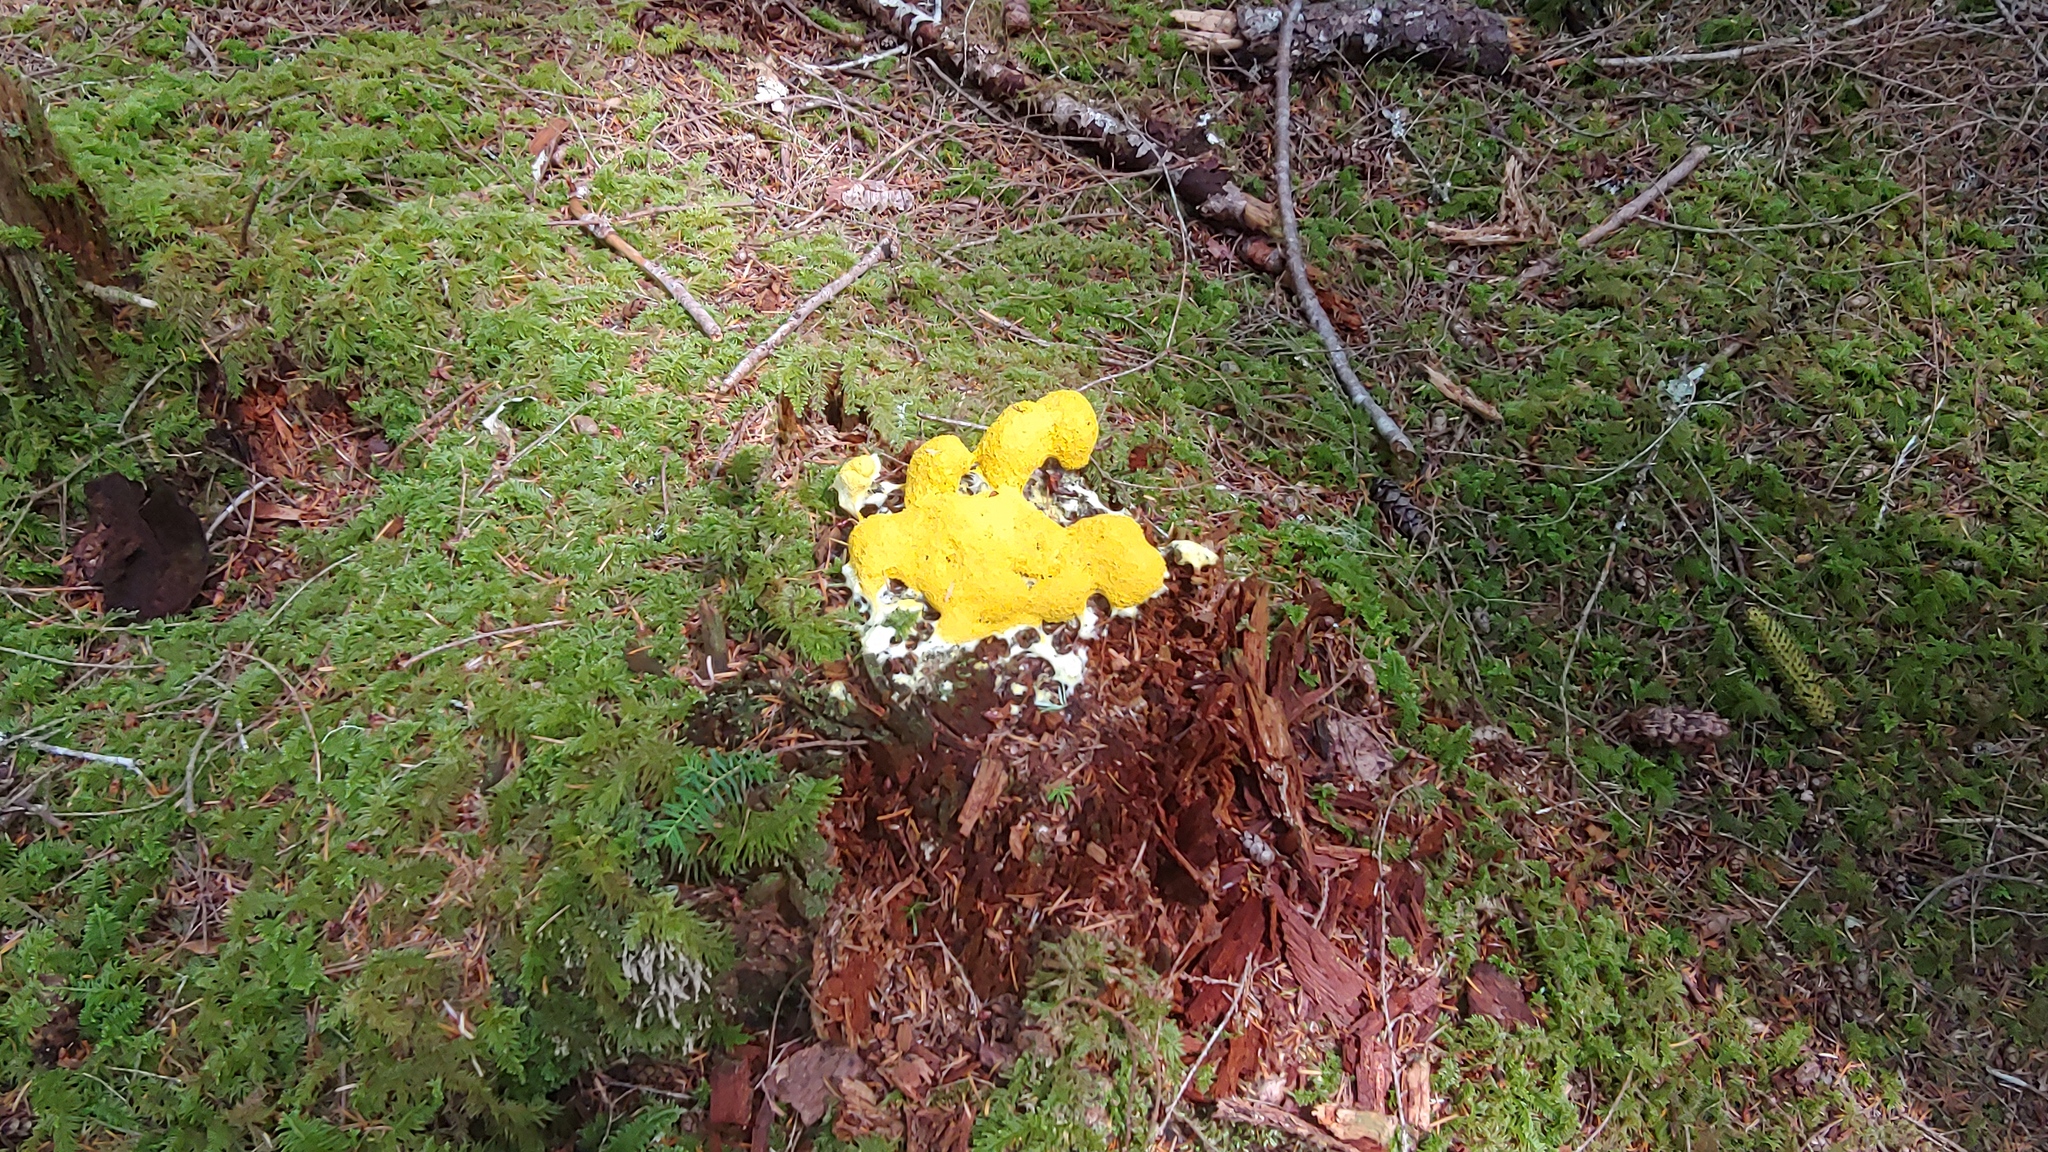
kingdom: Protozoa
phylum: Mycetozoa
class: Myxomycetes
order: Physarales
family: Physaraceae
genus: Fuligo
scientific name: Fuligo septica
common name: Dog vomit slime mold
